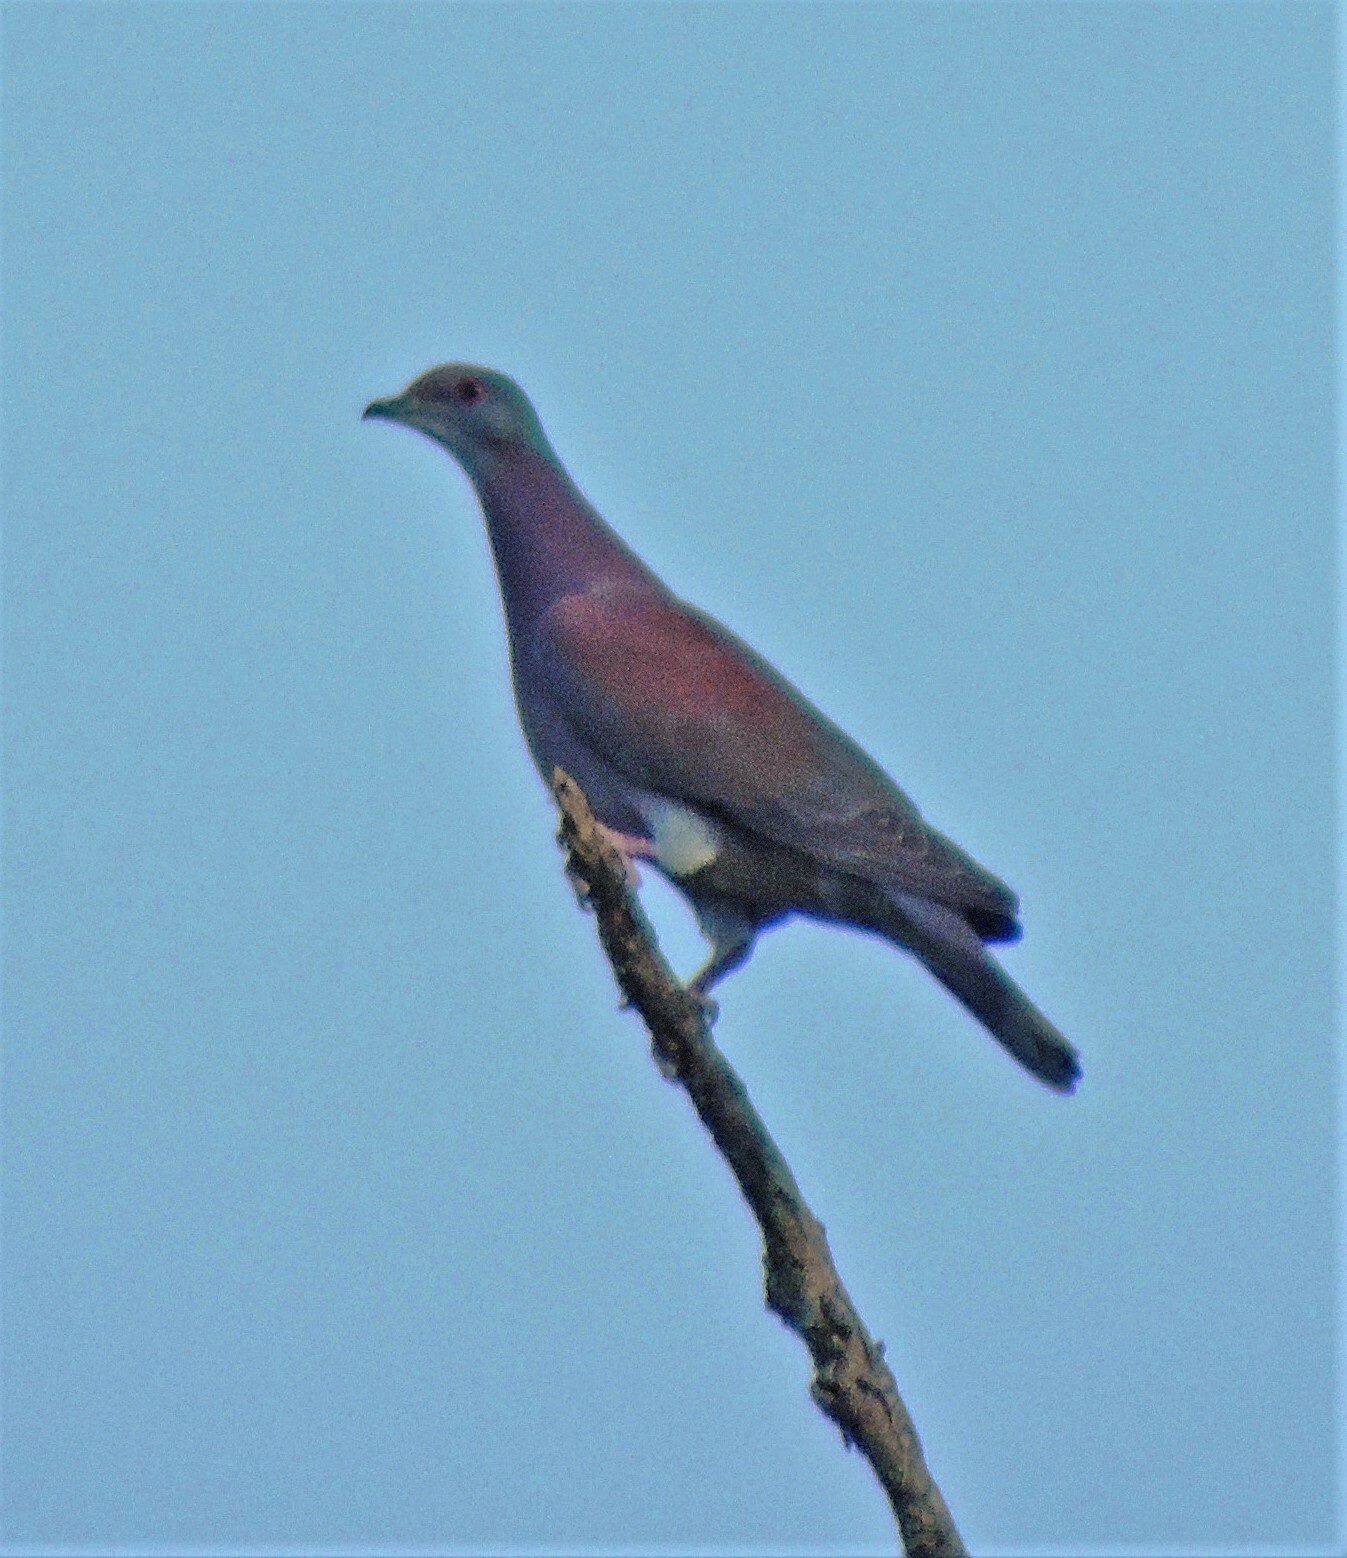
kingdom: Animalia
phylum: Chordata
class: Aves
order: Columbiformes
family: Columbidae
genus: Patagioenas
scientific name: Patagioenas cayennensis
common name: Pale-vented pigeon
